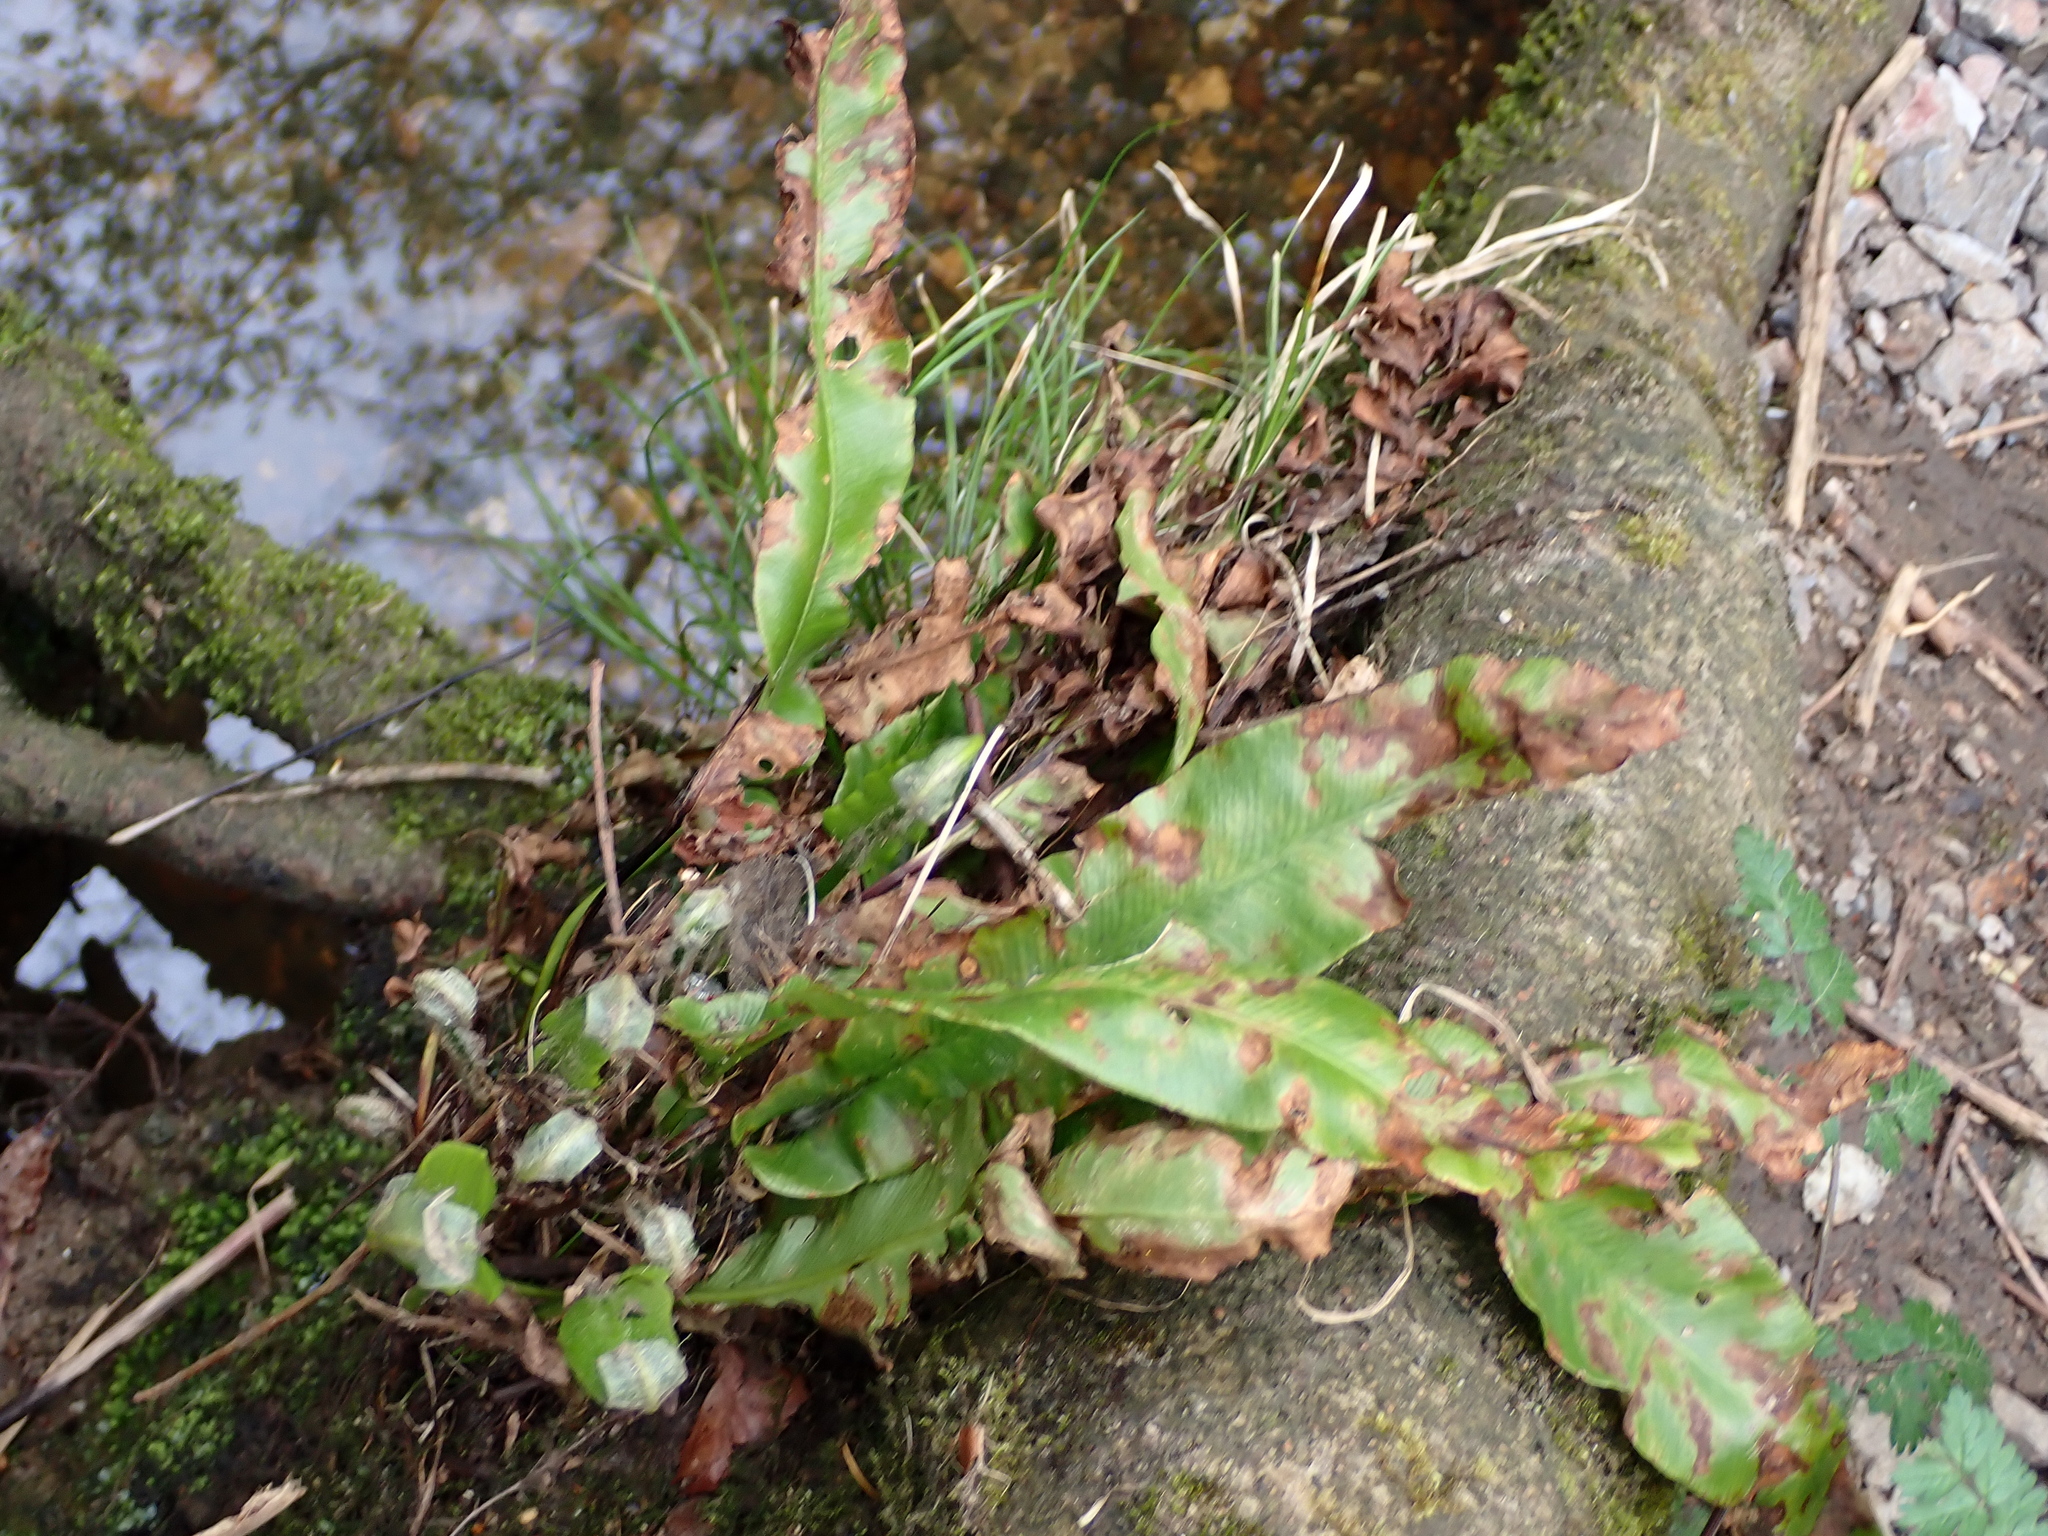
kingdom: Plantae
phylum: Tracheophyta
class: Polypodiopsida
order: Polypodiales
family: Aspleniaceae
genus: Asplenium
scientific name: Asplenium scolopendrium
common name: Hart's-tongue fern
